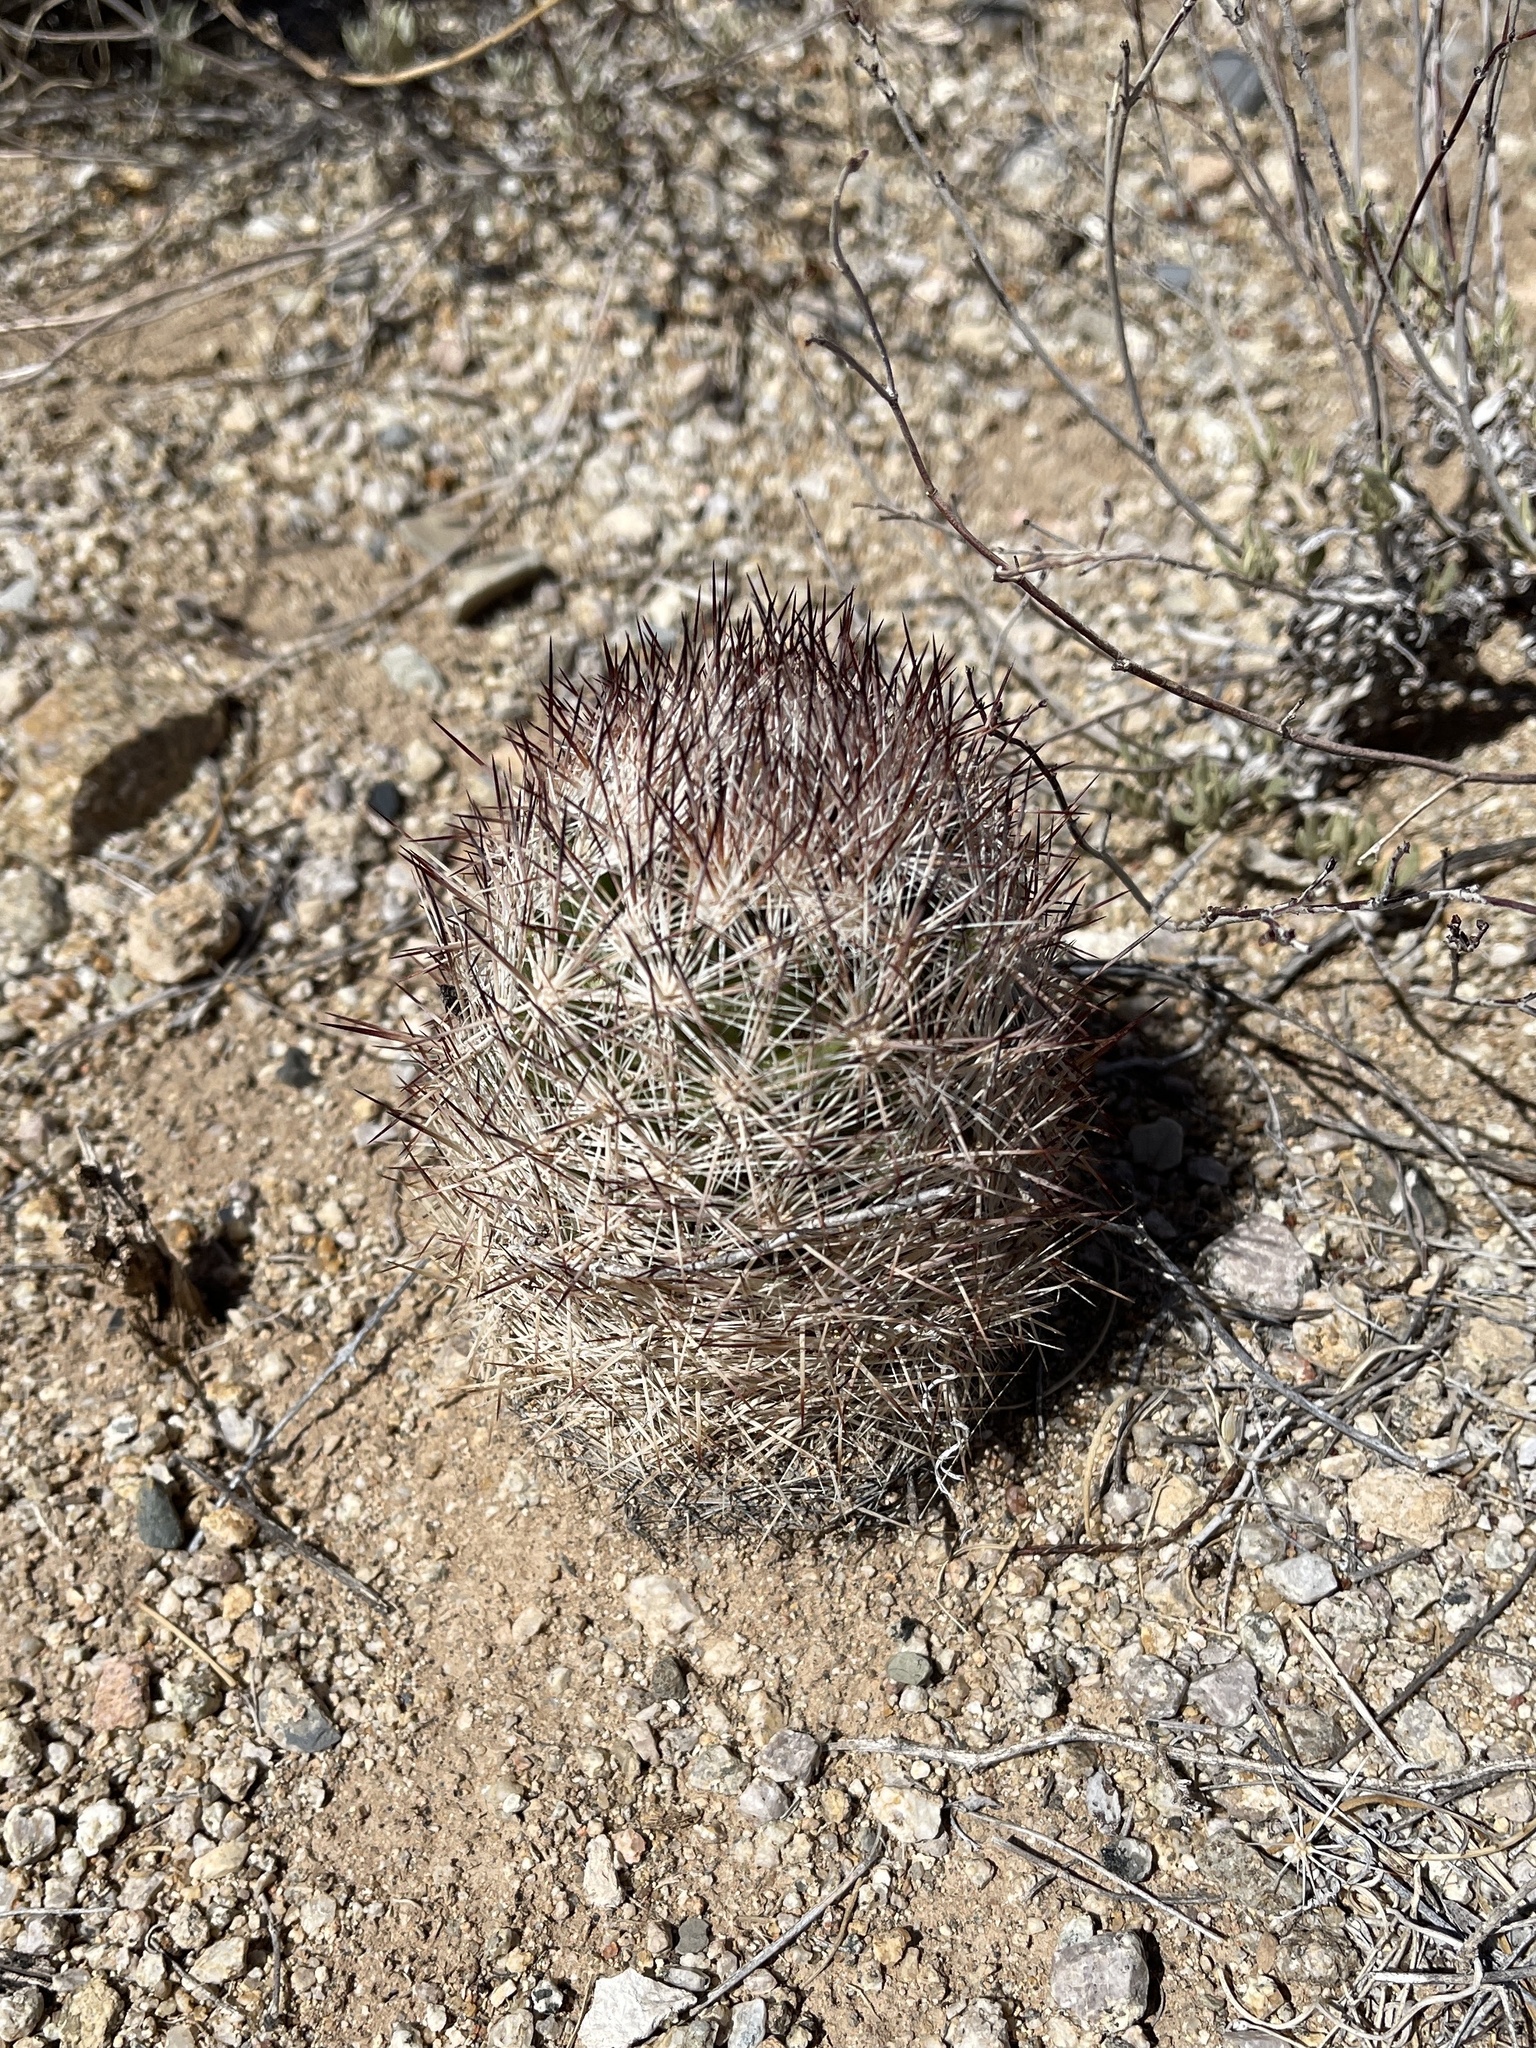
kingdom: Plantae
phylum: Tracheophyta
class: Magnoliopsida
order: Caryophyllales
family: Cactaceae
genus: Pelecyphora
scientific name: Pelecyphora vivipara
